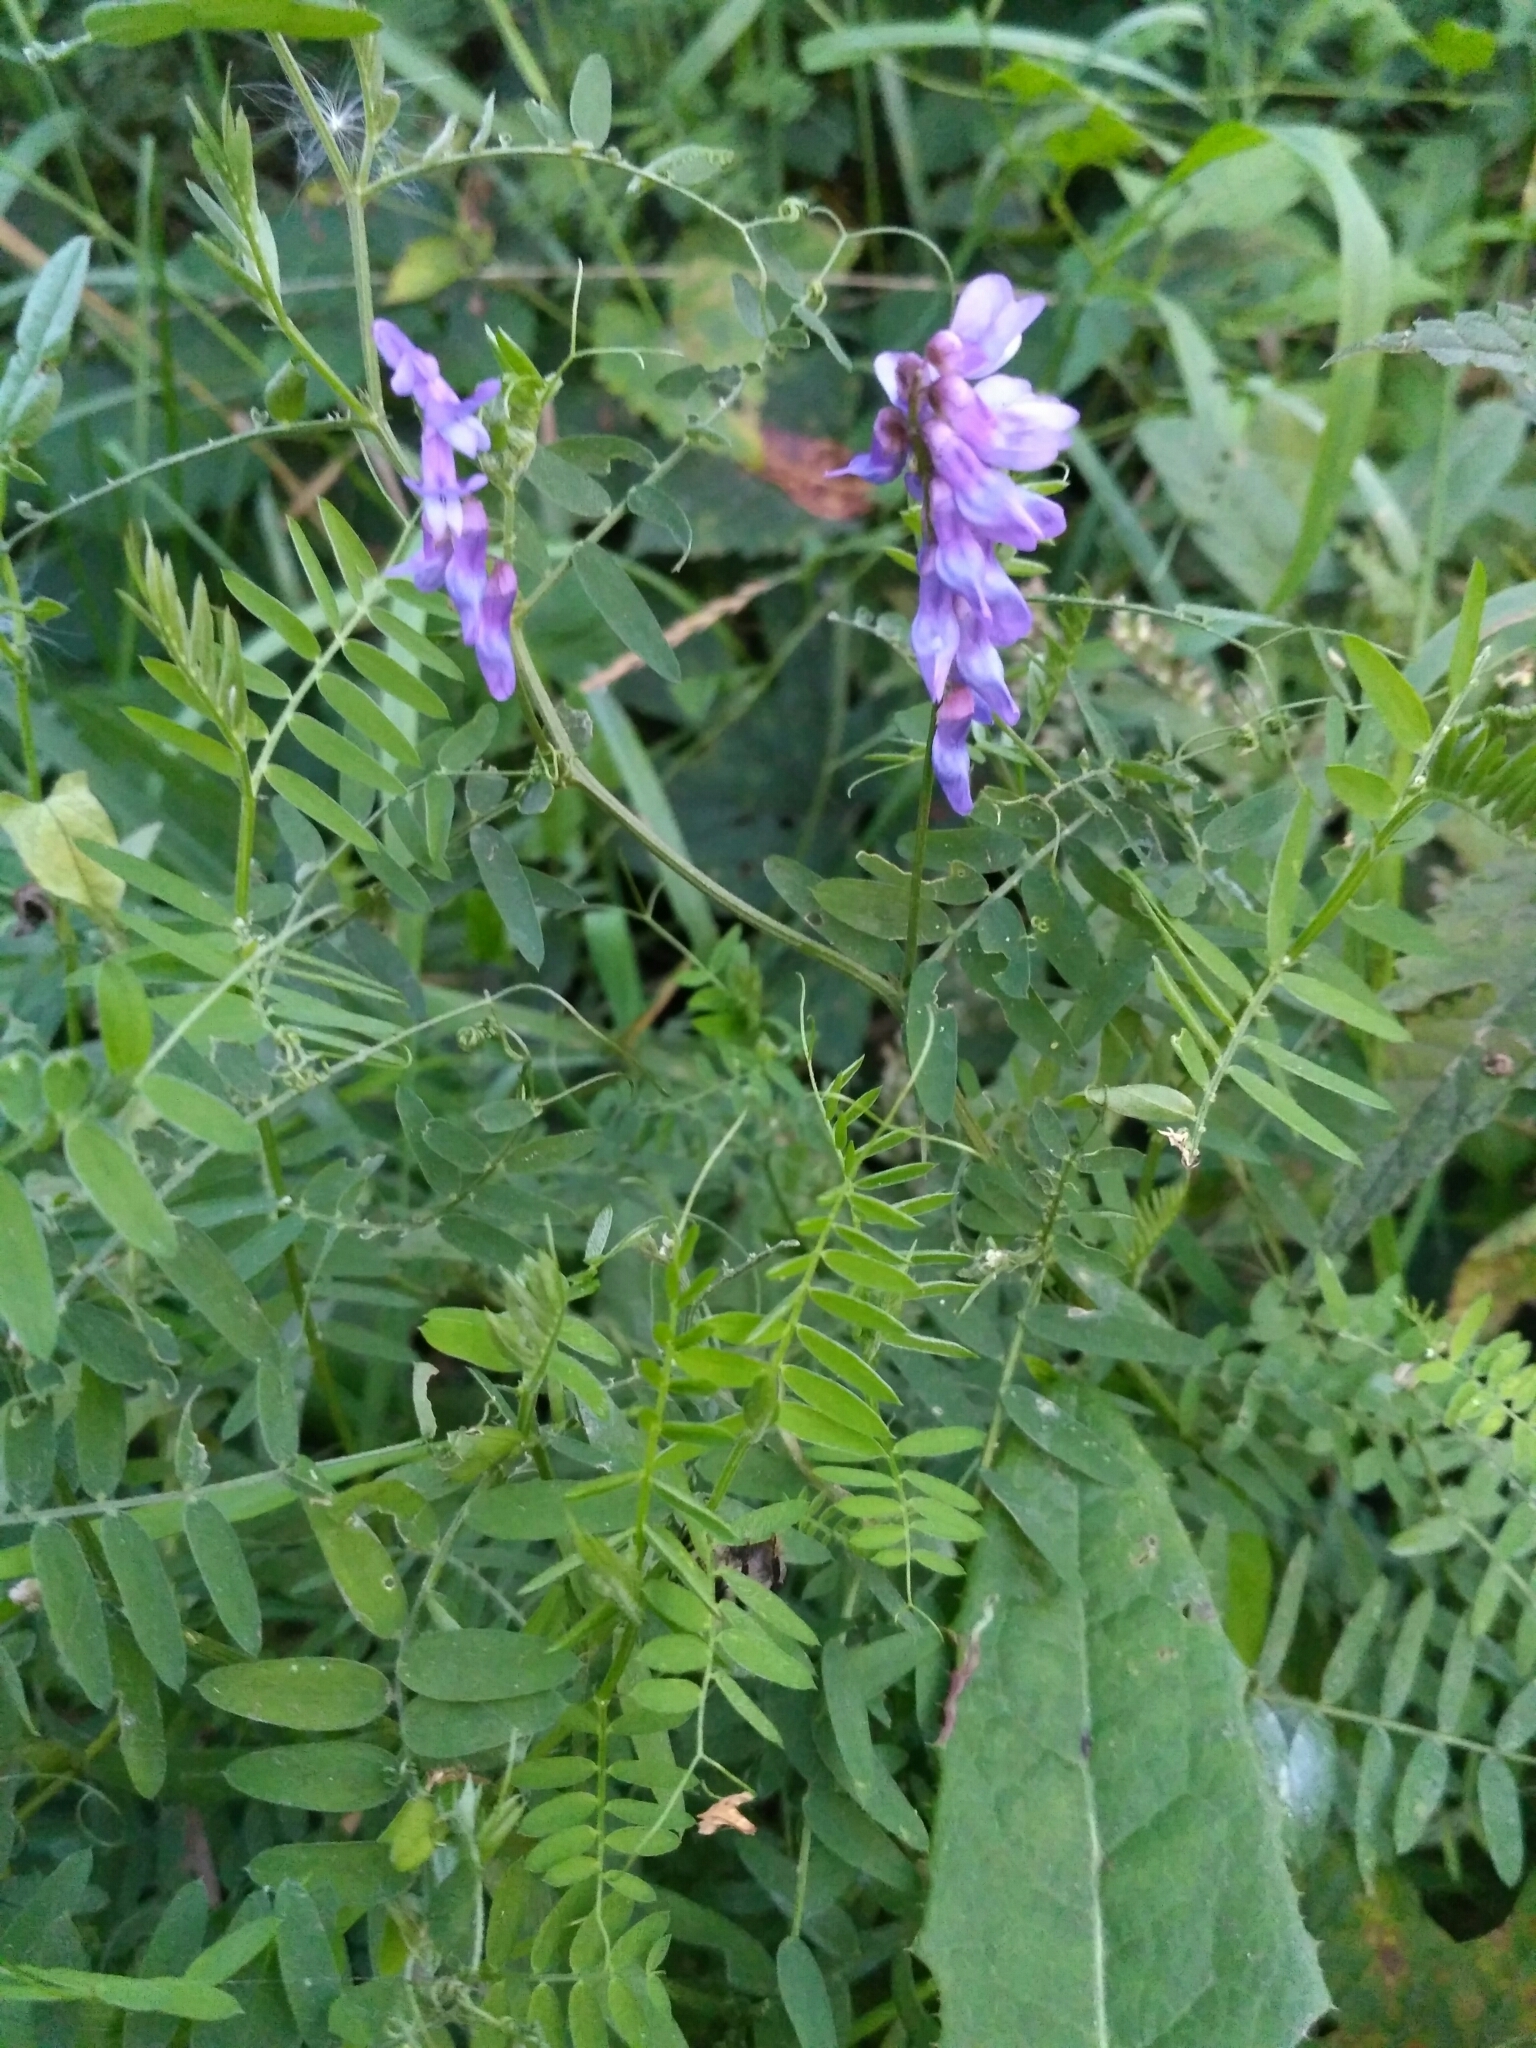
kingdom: Plantae
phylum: Tracheophyta
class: Magnoliopsida
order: Fabales
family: Fabaceae
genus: Vicia
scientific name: Vicia cracca
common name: Bird vetch
